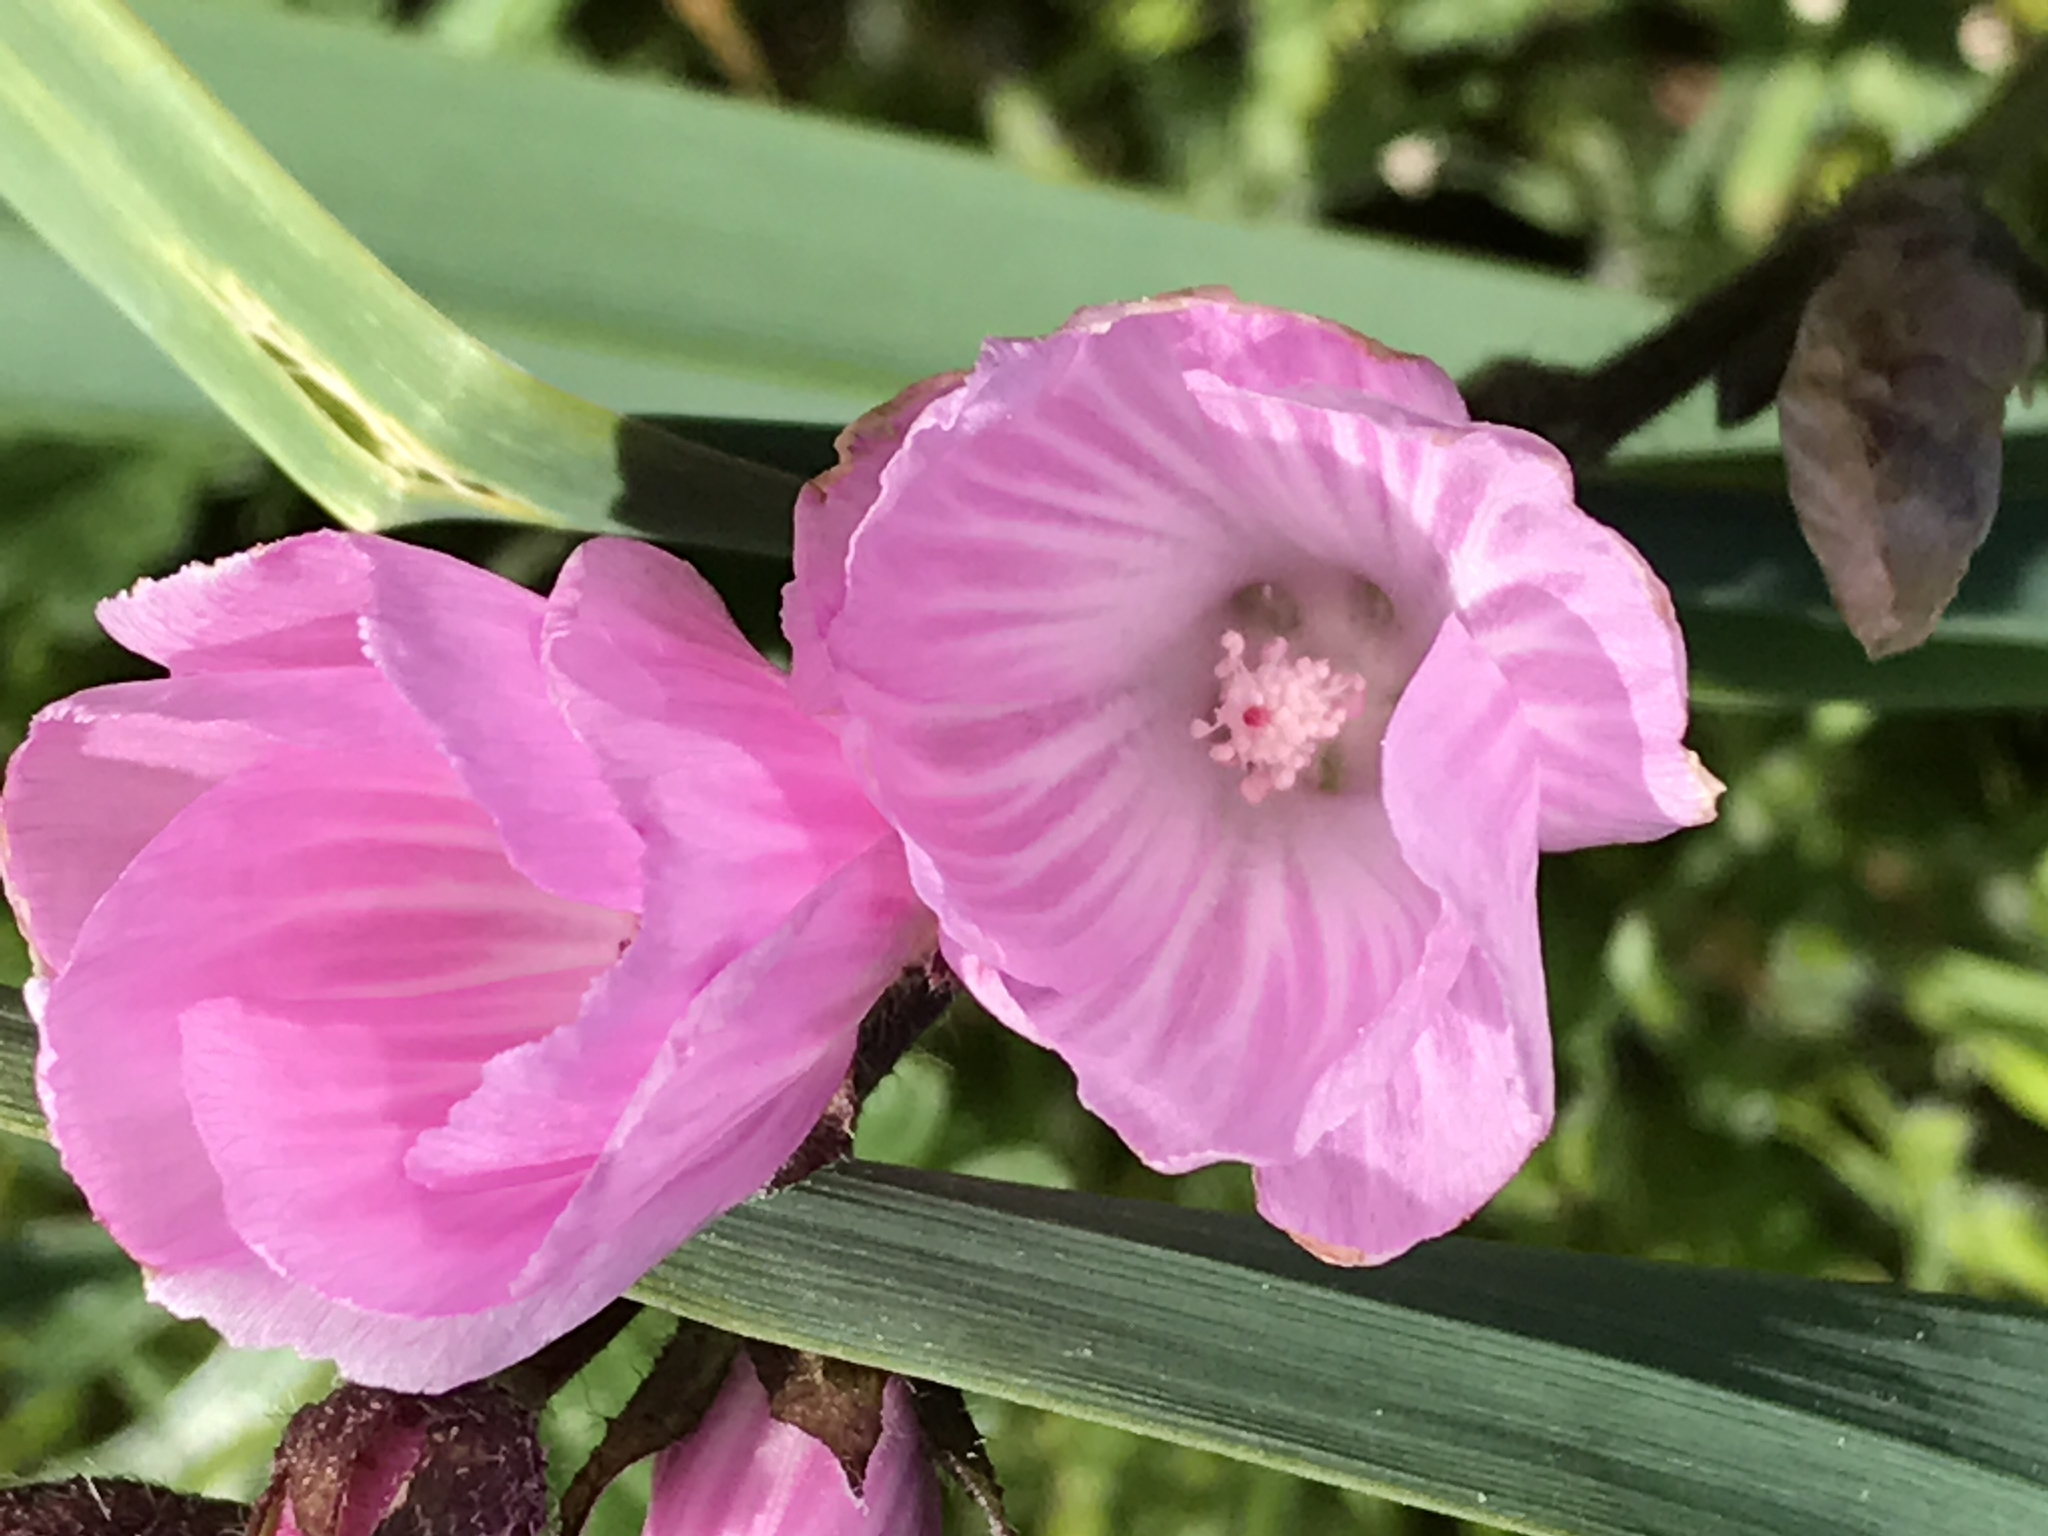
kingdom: Plantae
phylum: Tracheophyta
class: Magnoliopsida
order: Malvales
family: Malvaceae
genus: Sidalcea
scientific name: Sidalcea malviflora
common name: Greek mallow
